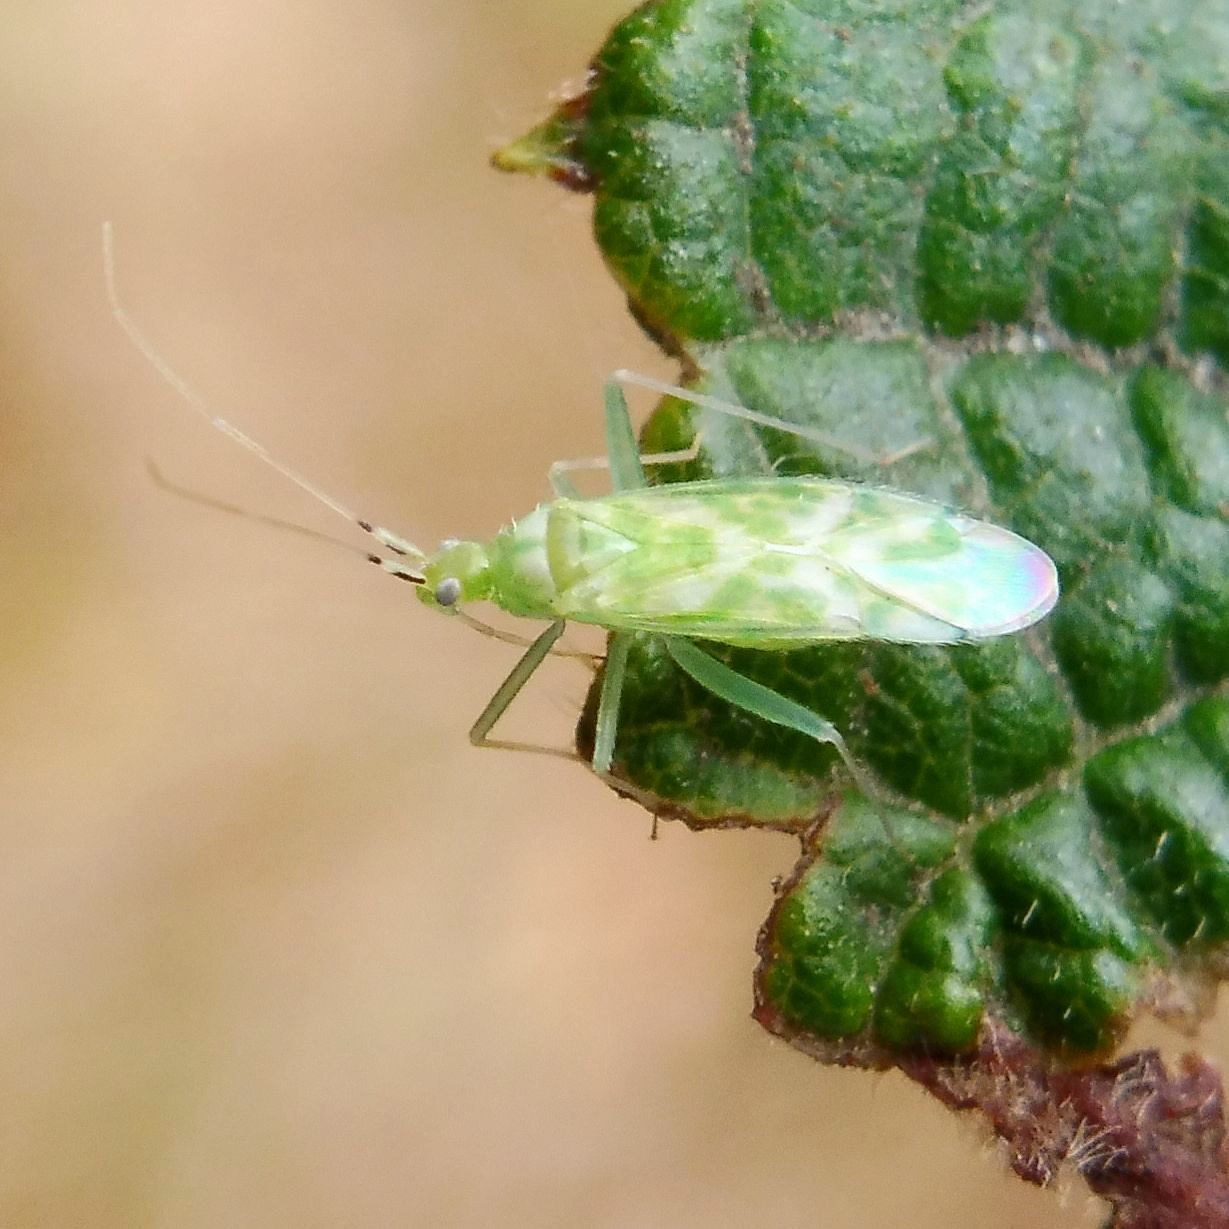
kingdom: Animalia
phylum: Arthropoda
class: Insecta
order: Hemiptera
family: Miridae
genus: Malacocoris
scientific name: Malacocoris chlorizans
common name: Plant bug
